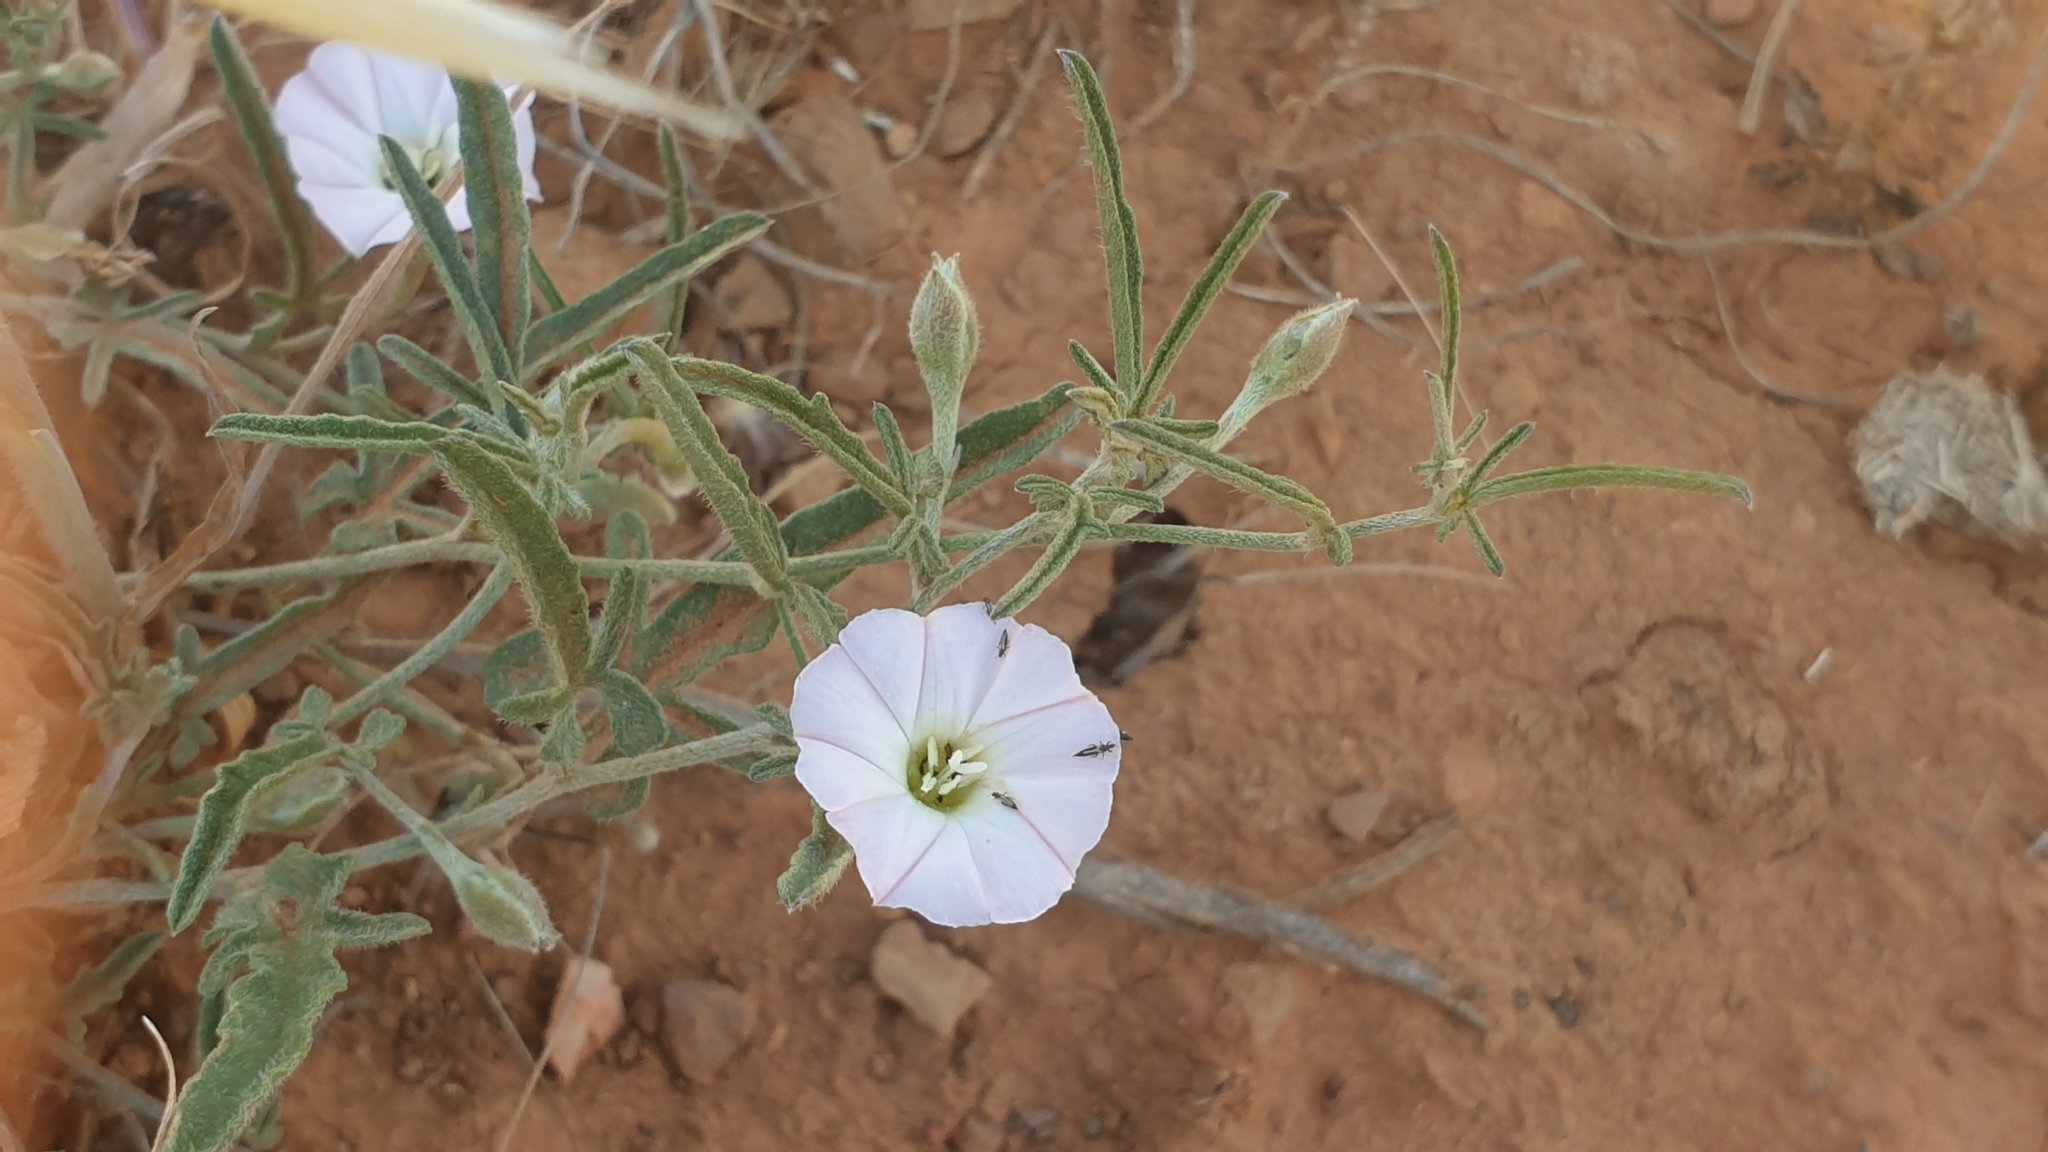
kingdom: Plantae
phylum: Tracheophyta
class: Magnoliopsida
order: Solanales
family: Convolvulaceae
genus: Convolvulus
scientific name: Convolvulus angustissimus
